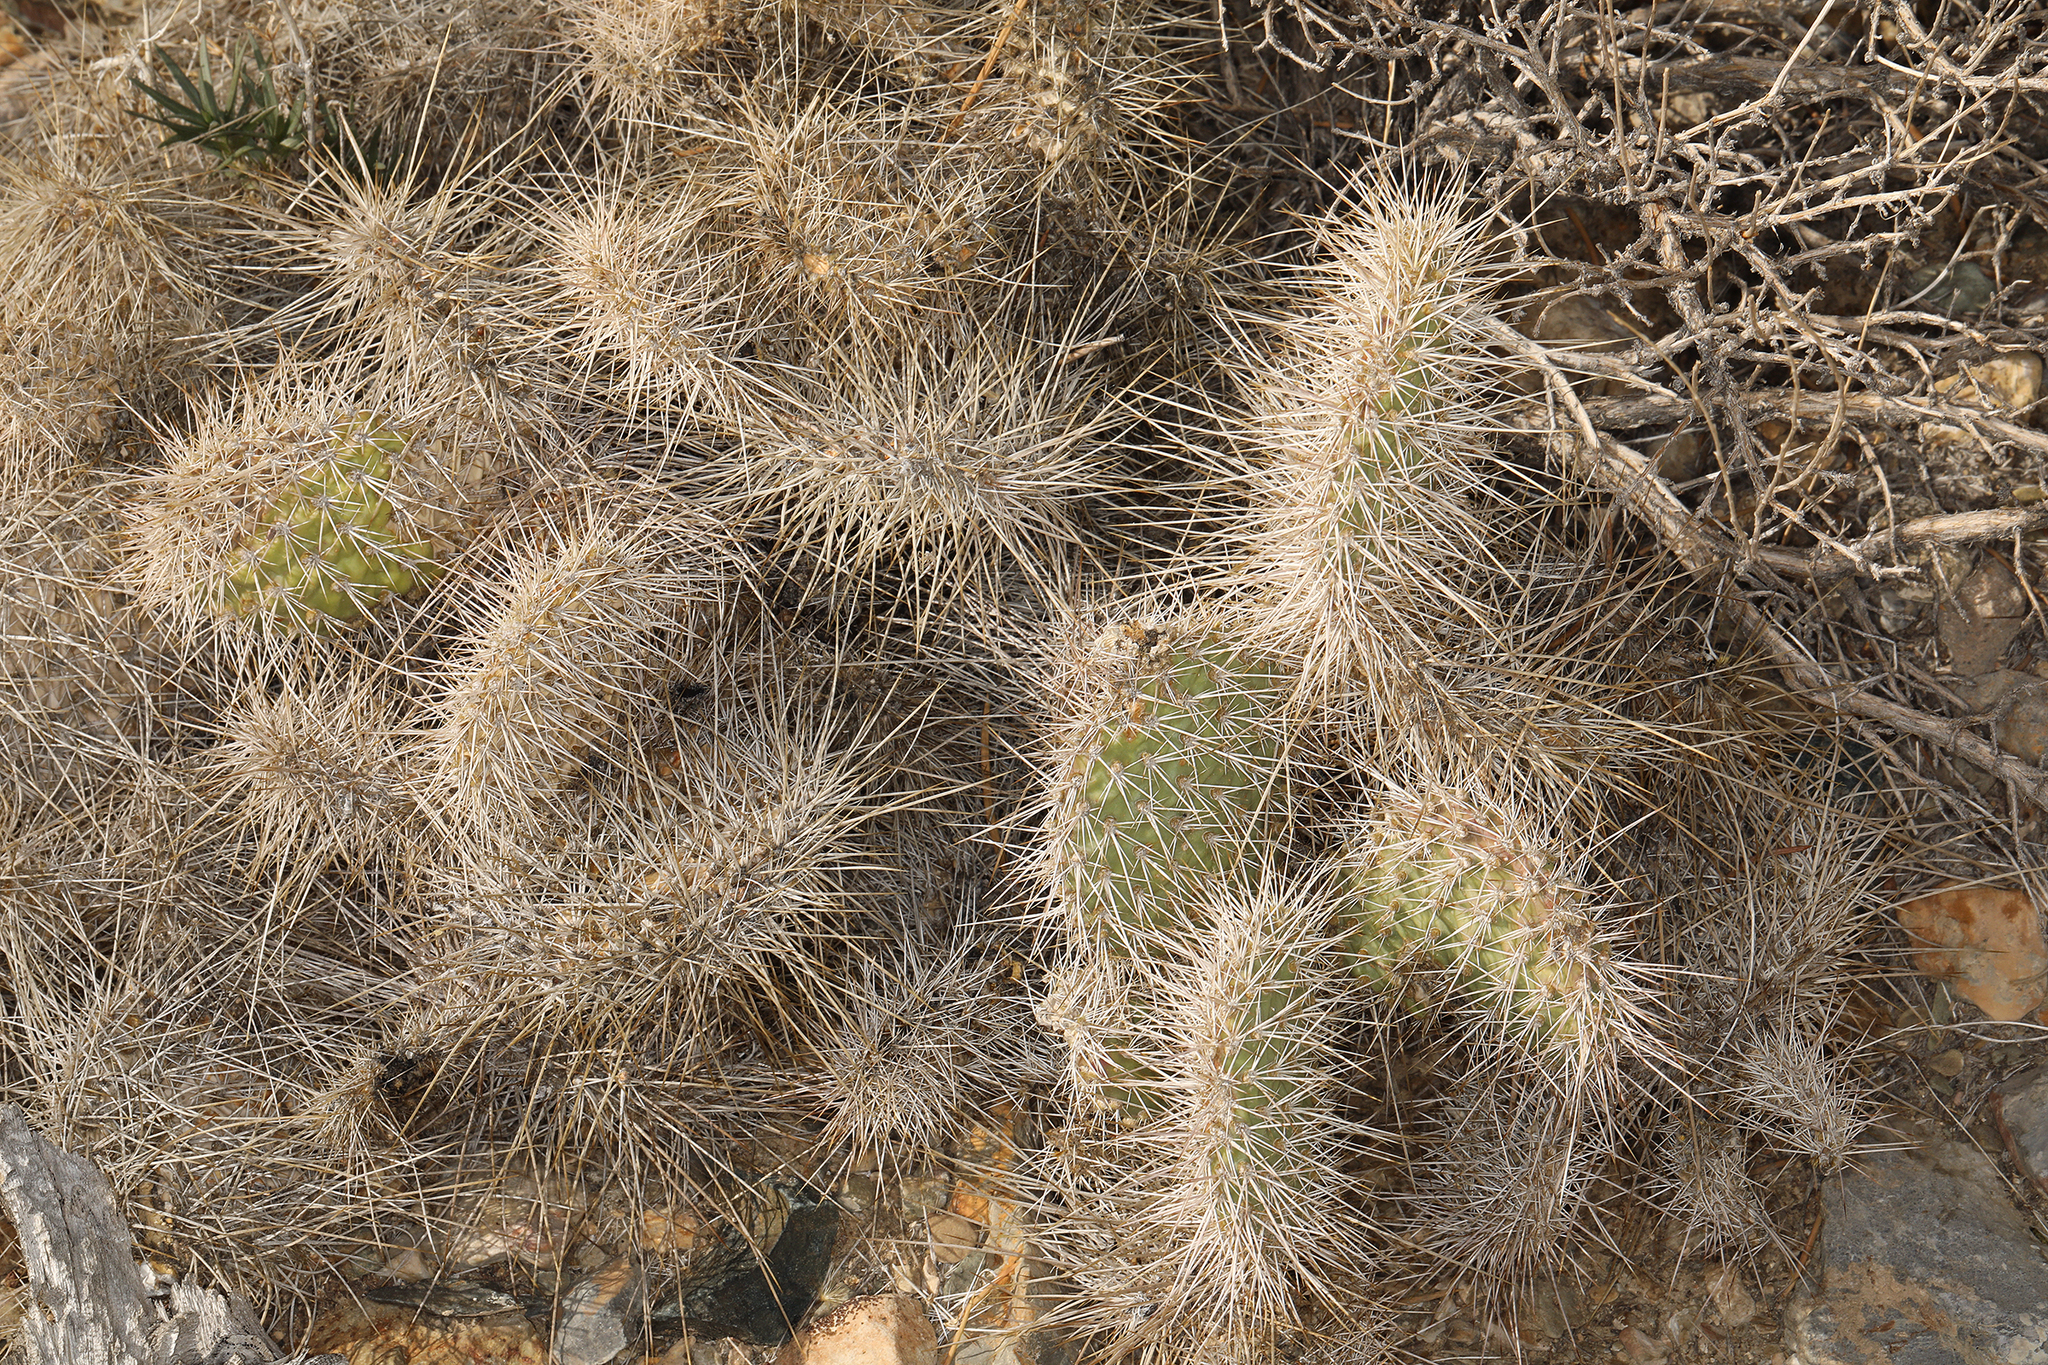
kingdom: Plantae
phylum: Tracheophyta
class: Magnoliopsida
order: Caryophyllales
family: Cactaceae
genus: Opuntia
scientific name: Opuntia polyacantha
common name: Plains prickly-pear
